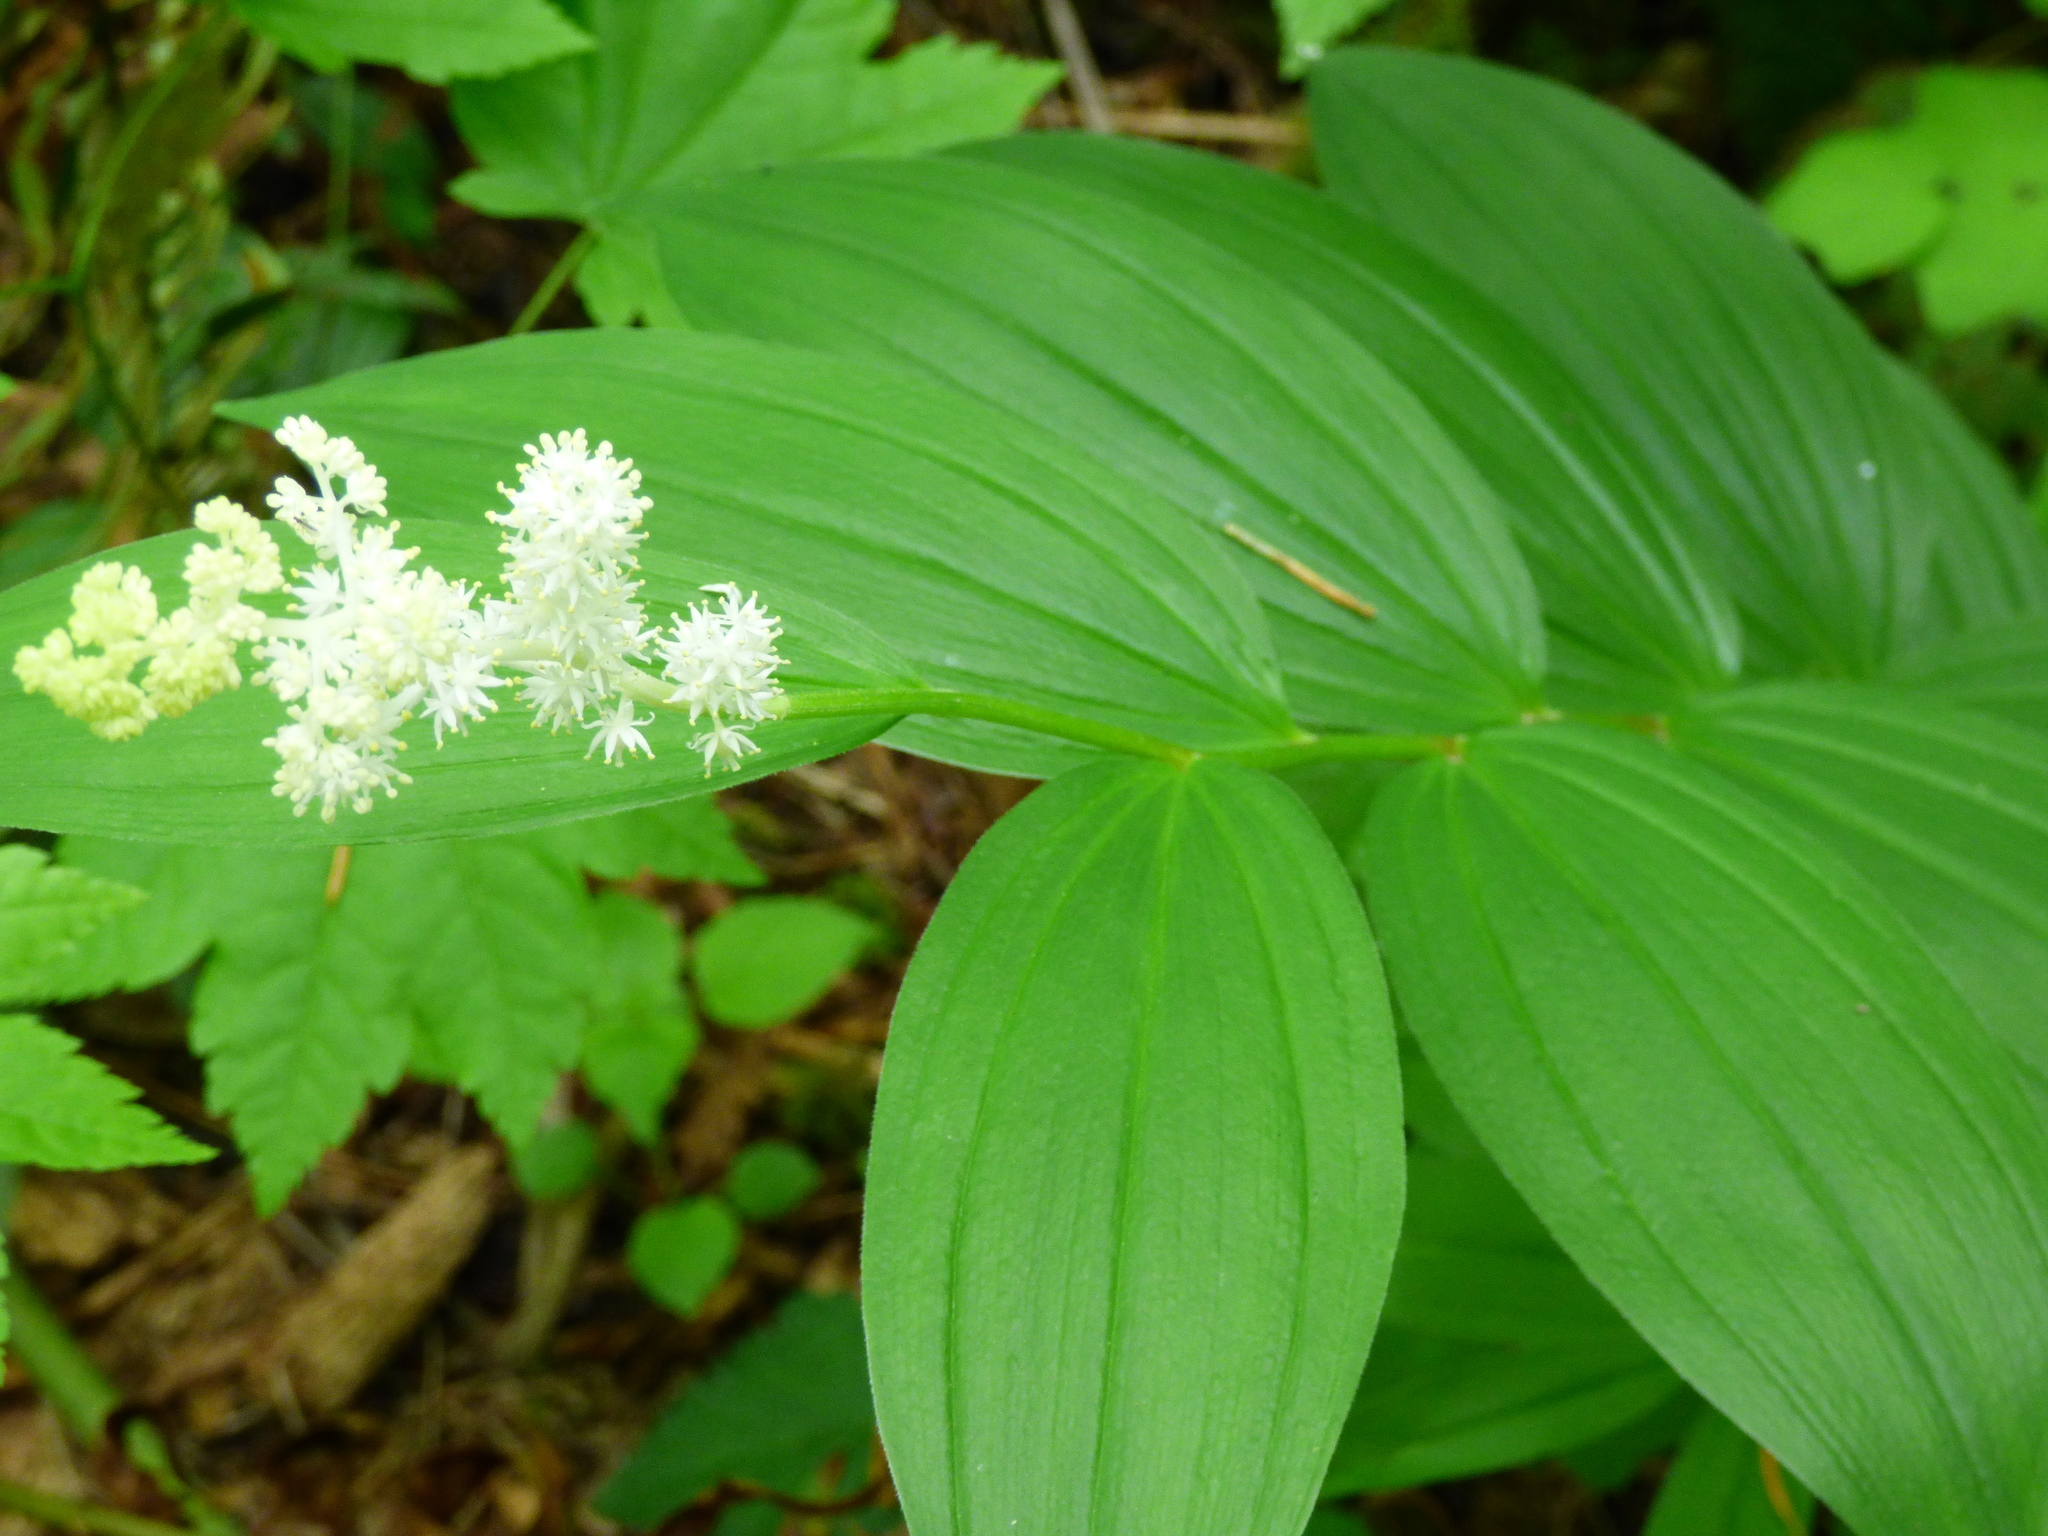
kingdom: Plantae
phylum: Tracheophyta
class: Liliopsida
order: Asparagales
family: Asparagaceae
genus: Maianthemum
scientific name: Maianthemum racemosum
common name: False spikenard
